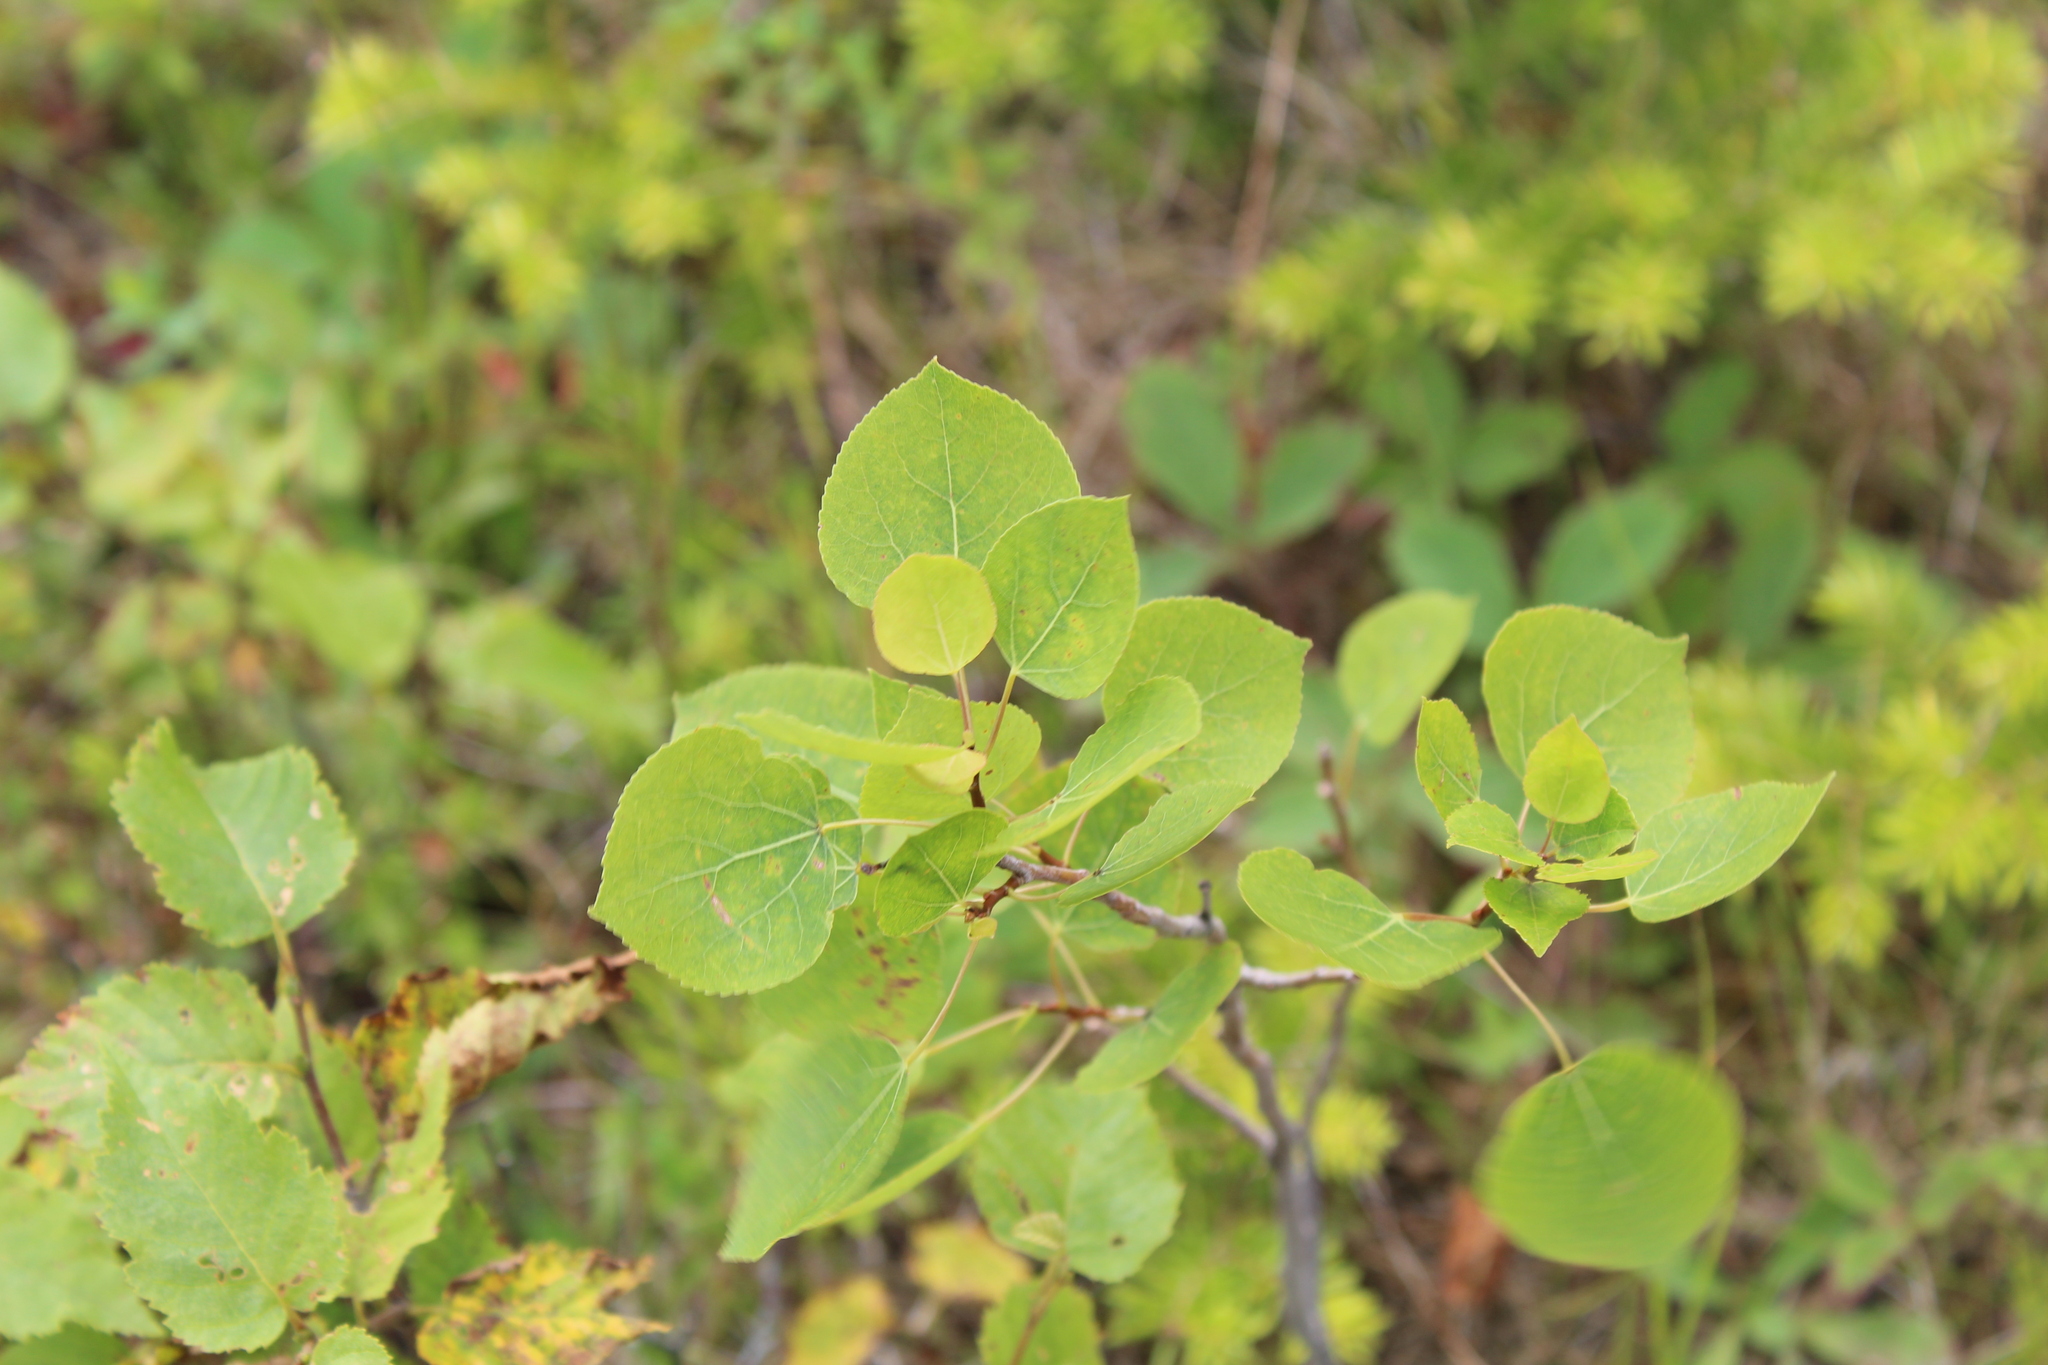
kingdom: Plantae
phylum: Tracheophyta
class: Magnoliopsida
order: Malpighiales
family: Salicaceae
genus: Populus
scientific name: Populus tremuloides
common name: Quaking aspen
